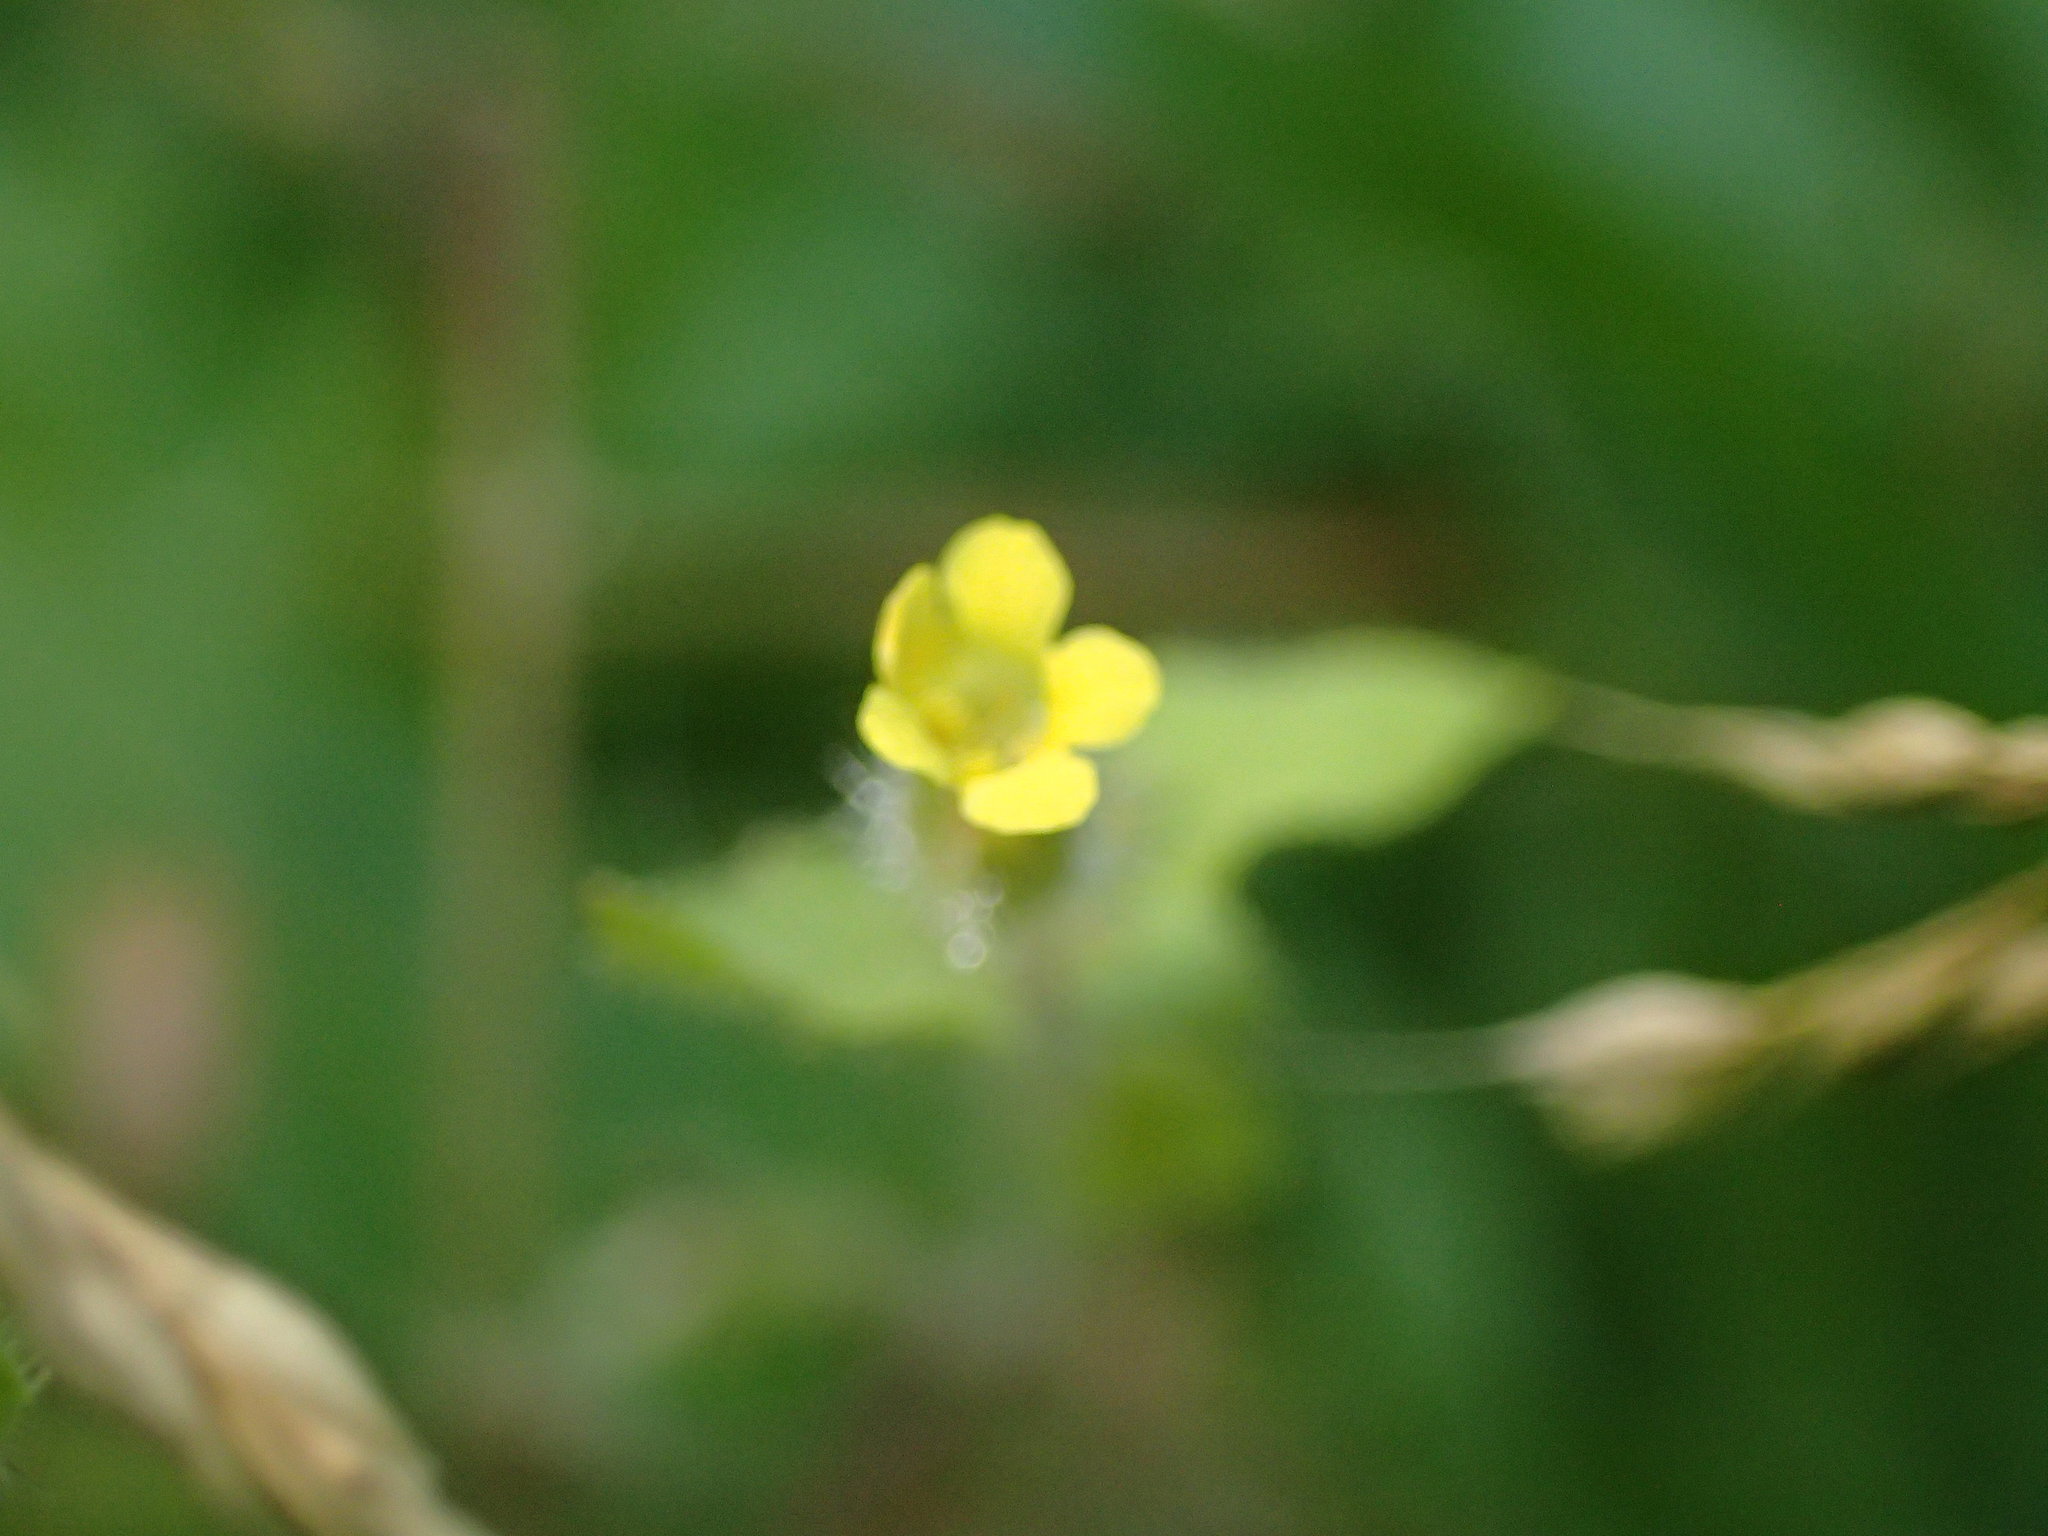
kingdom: Plantae
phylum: Tracheophyta
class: Magnoliopsida
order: Lamiales
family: Phrymaceae
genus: Erythranthe
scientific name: Erythranthe floribunda
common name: Floriferous monkeyflower
